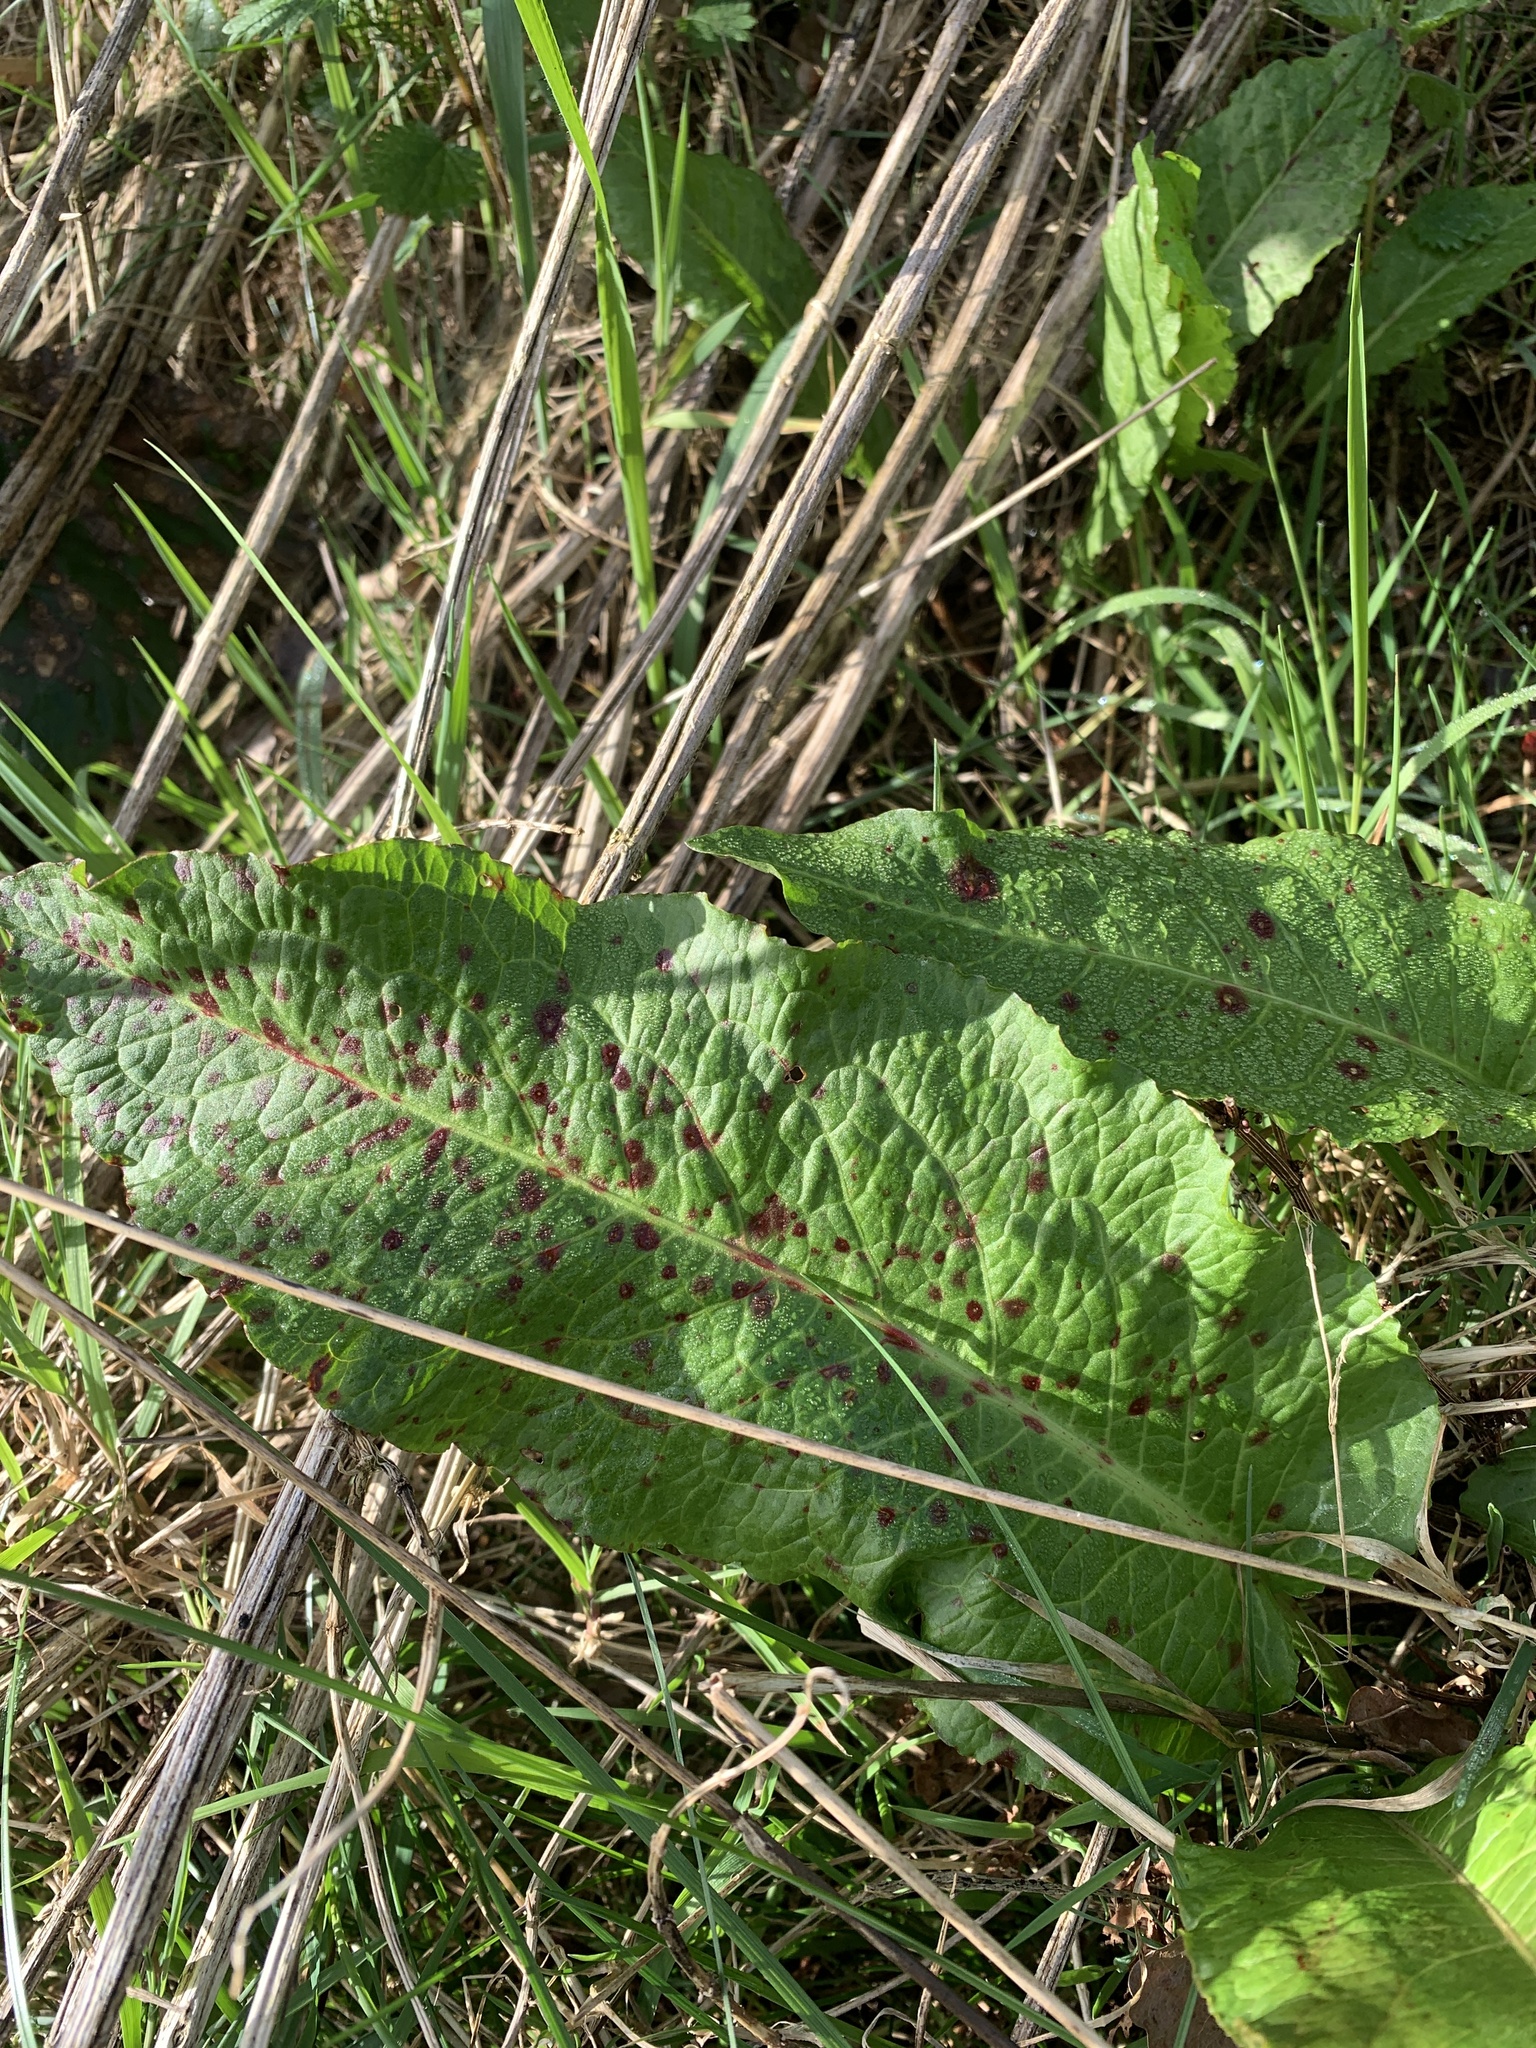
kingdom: Fungi
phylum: Ascomycota
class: Dothideomycetes
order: Mycosphaerellales
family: Mycosphaerellaceae
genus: Ramularia
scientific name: Ramularia rubella
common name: Red dock spot
